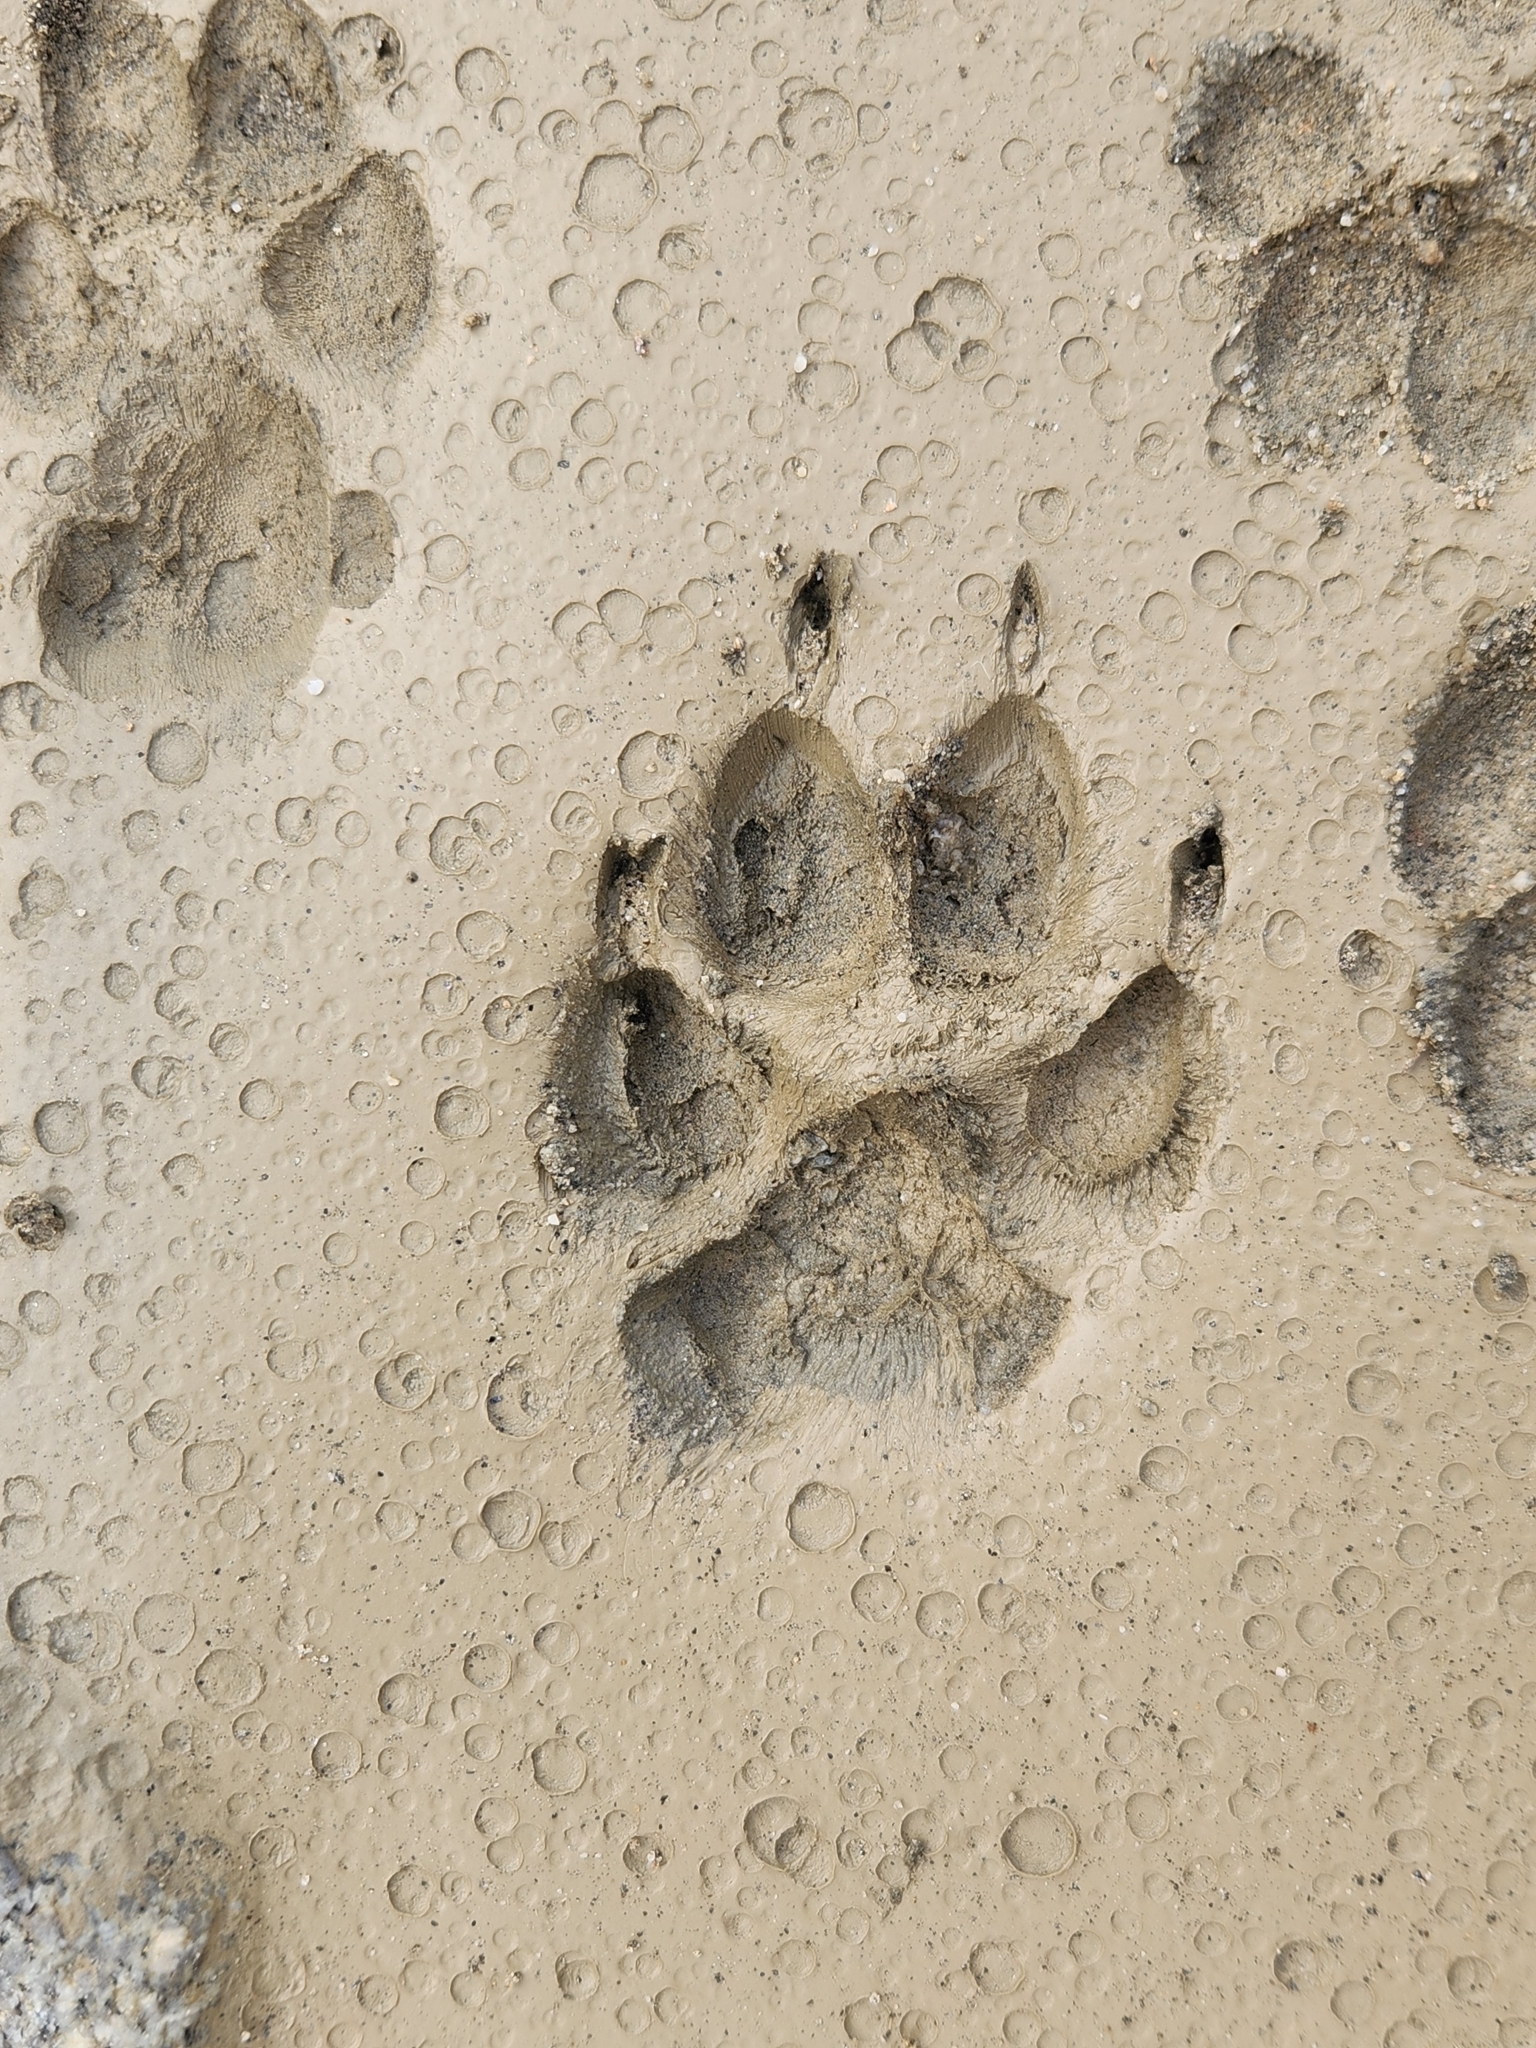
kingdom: Animalia
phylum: Chordata
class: Mammalia
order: Carnivora
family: Canidae
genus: Canis
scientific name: Canis latrans
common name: Coyote
